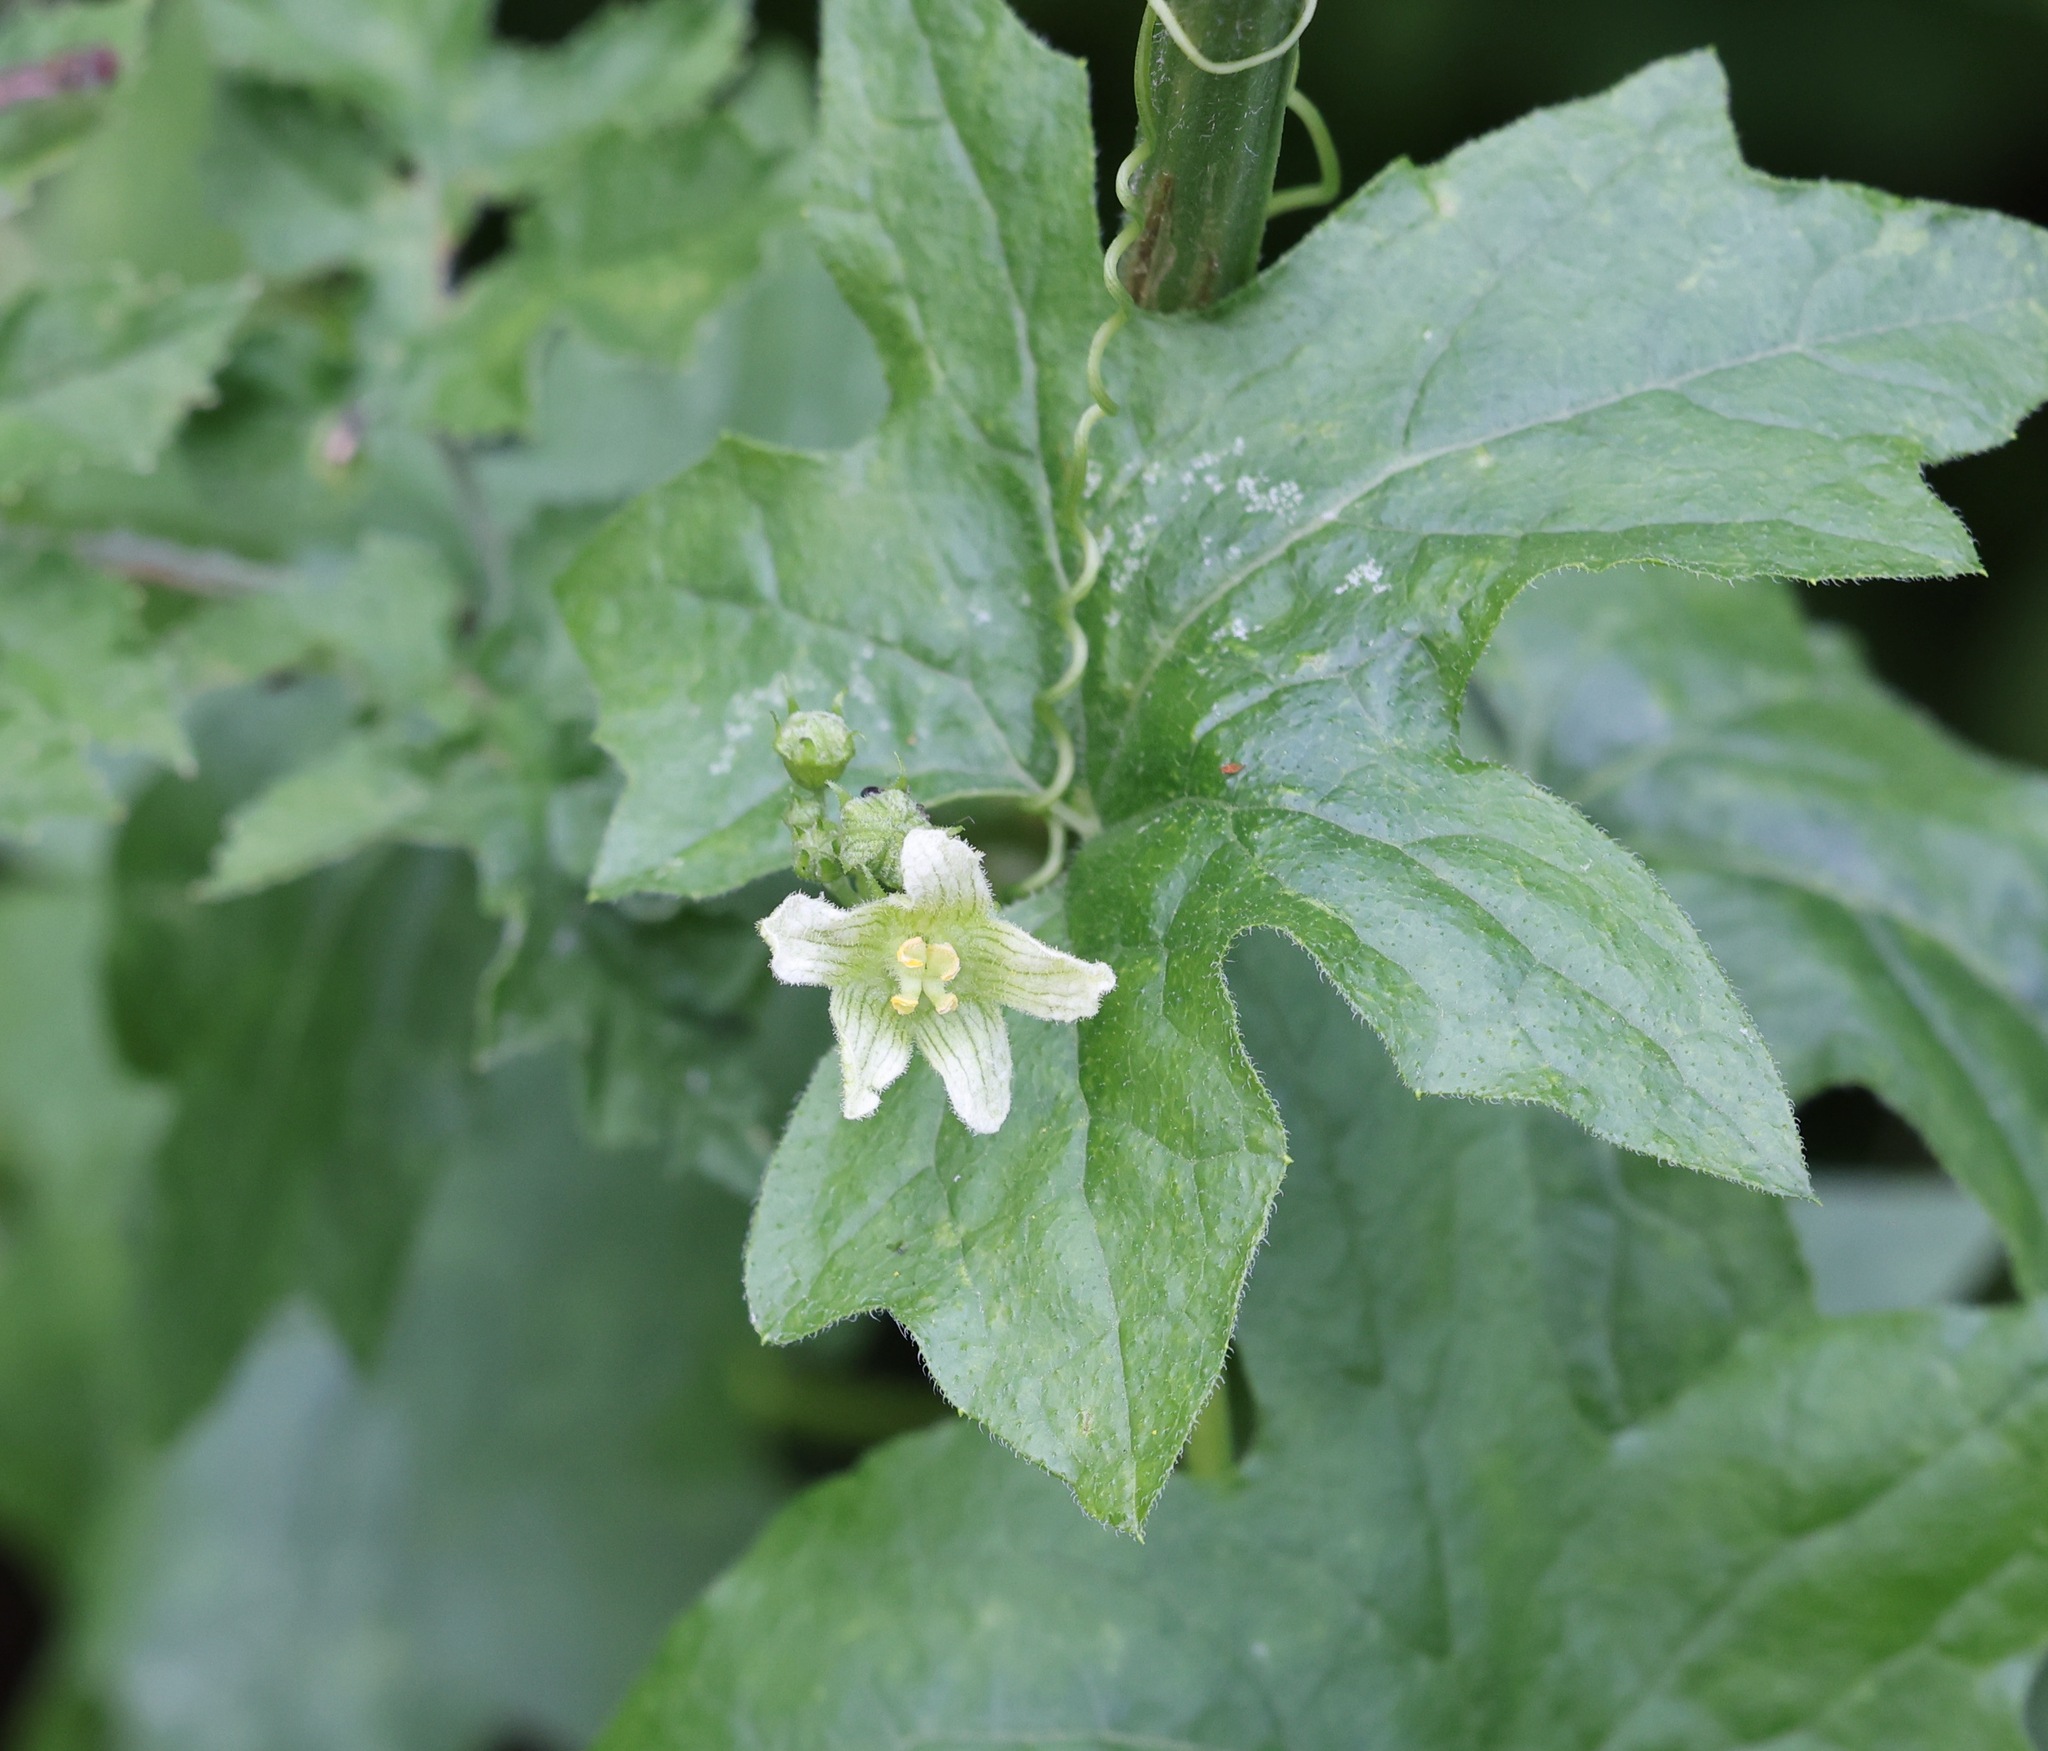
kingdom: Plantae
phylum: Tracheophyta
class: Magnoliopsida
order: Cucurbitales
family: Cucurbitaceae
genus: Bryonia
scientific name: Bryonia cretica
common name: Cretan bryony
